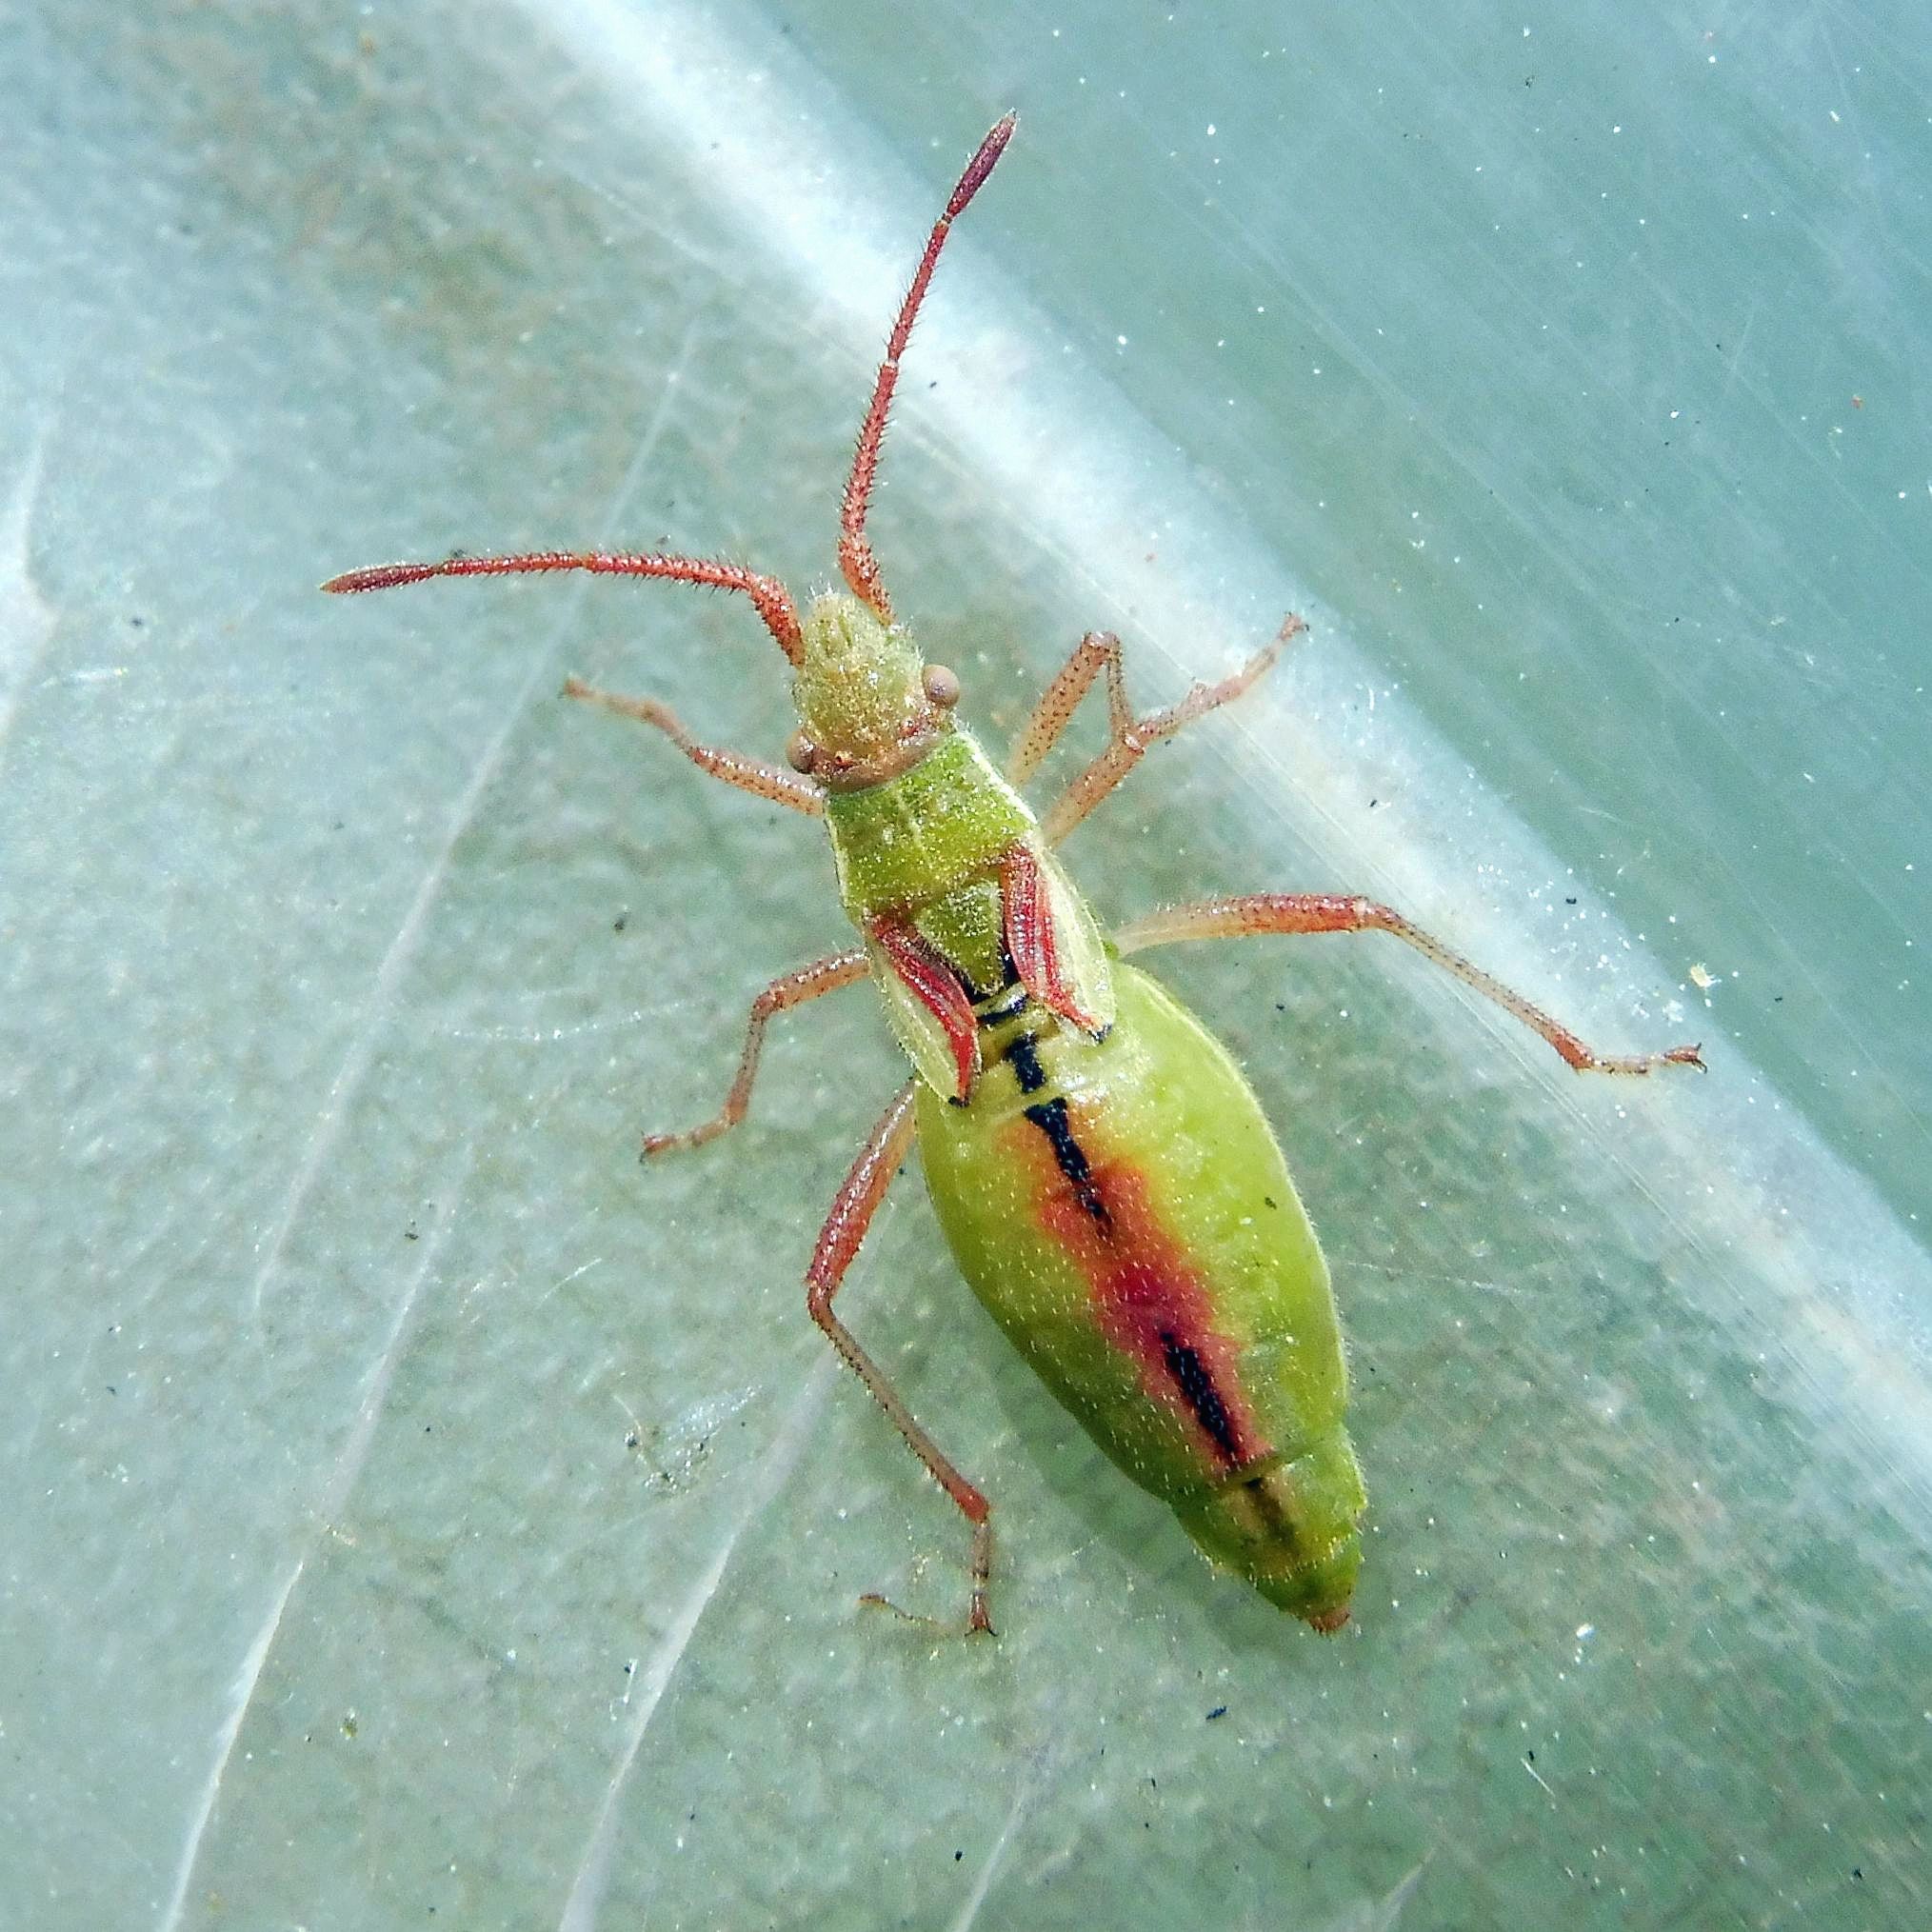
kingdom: Animalia
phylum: Arthropoda
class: Insecta
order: Hemiptera
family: Rhopalidae
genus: Myrmus
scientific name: Myrmus miriformis
